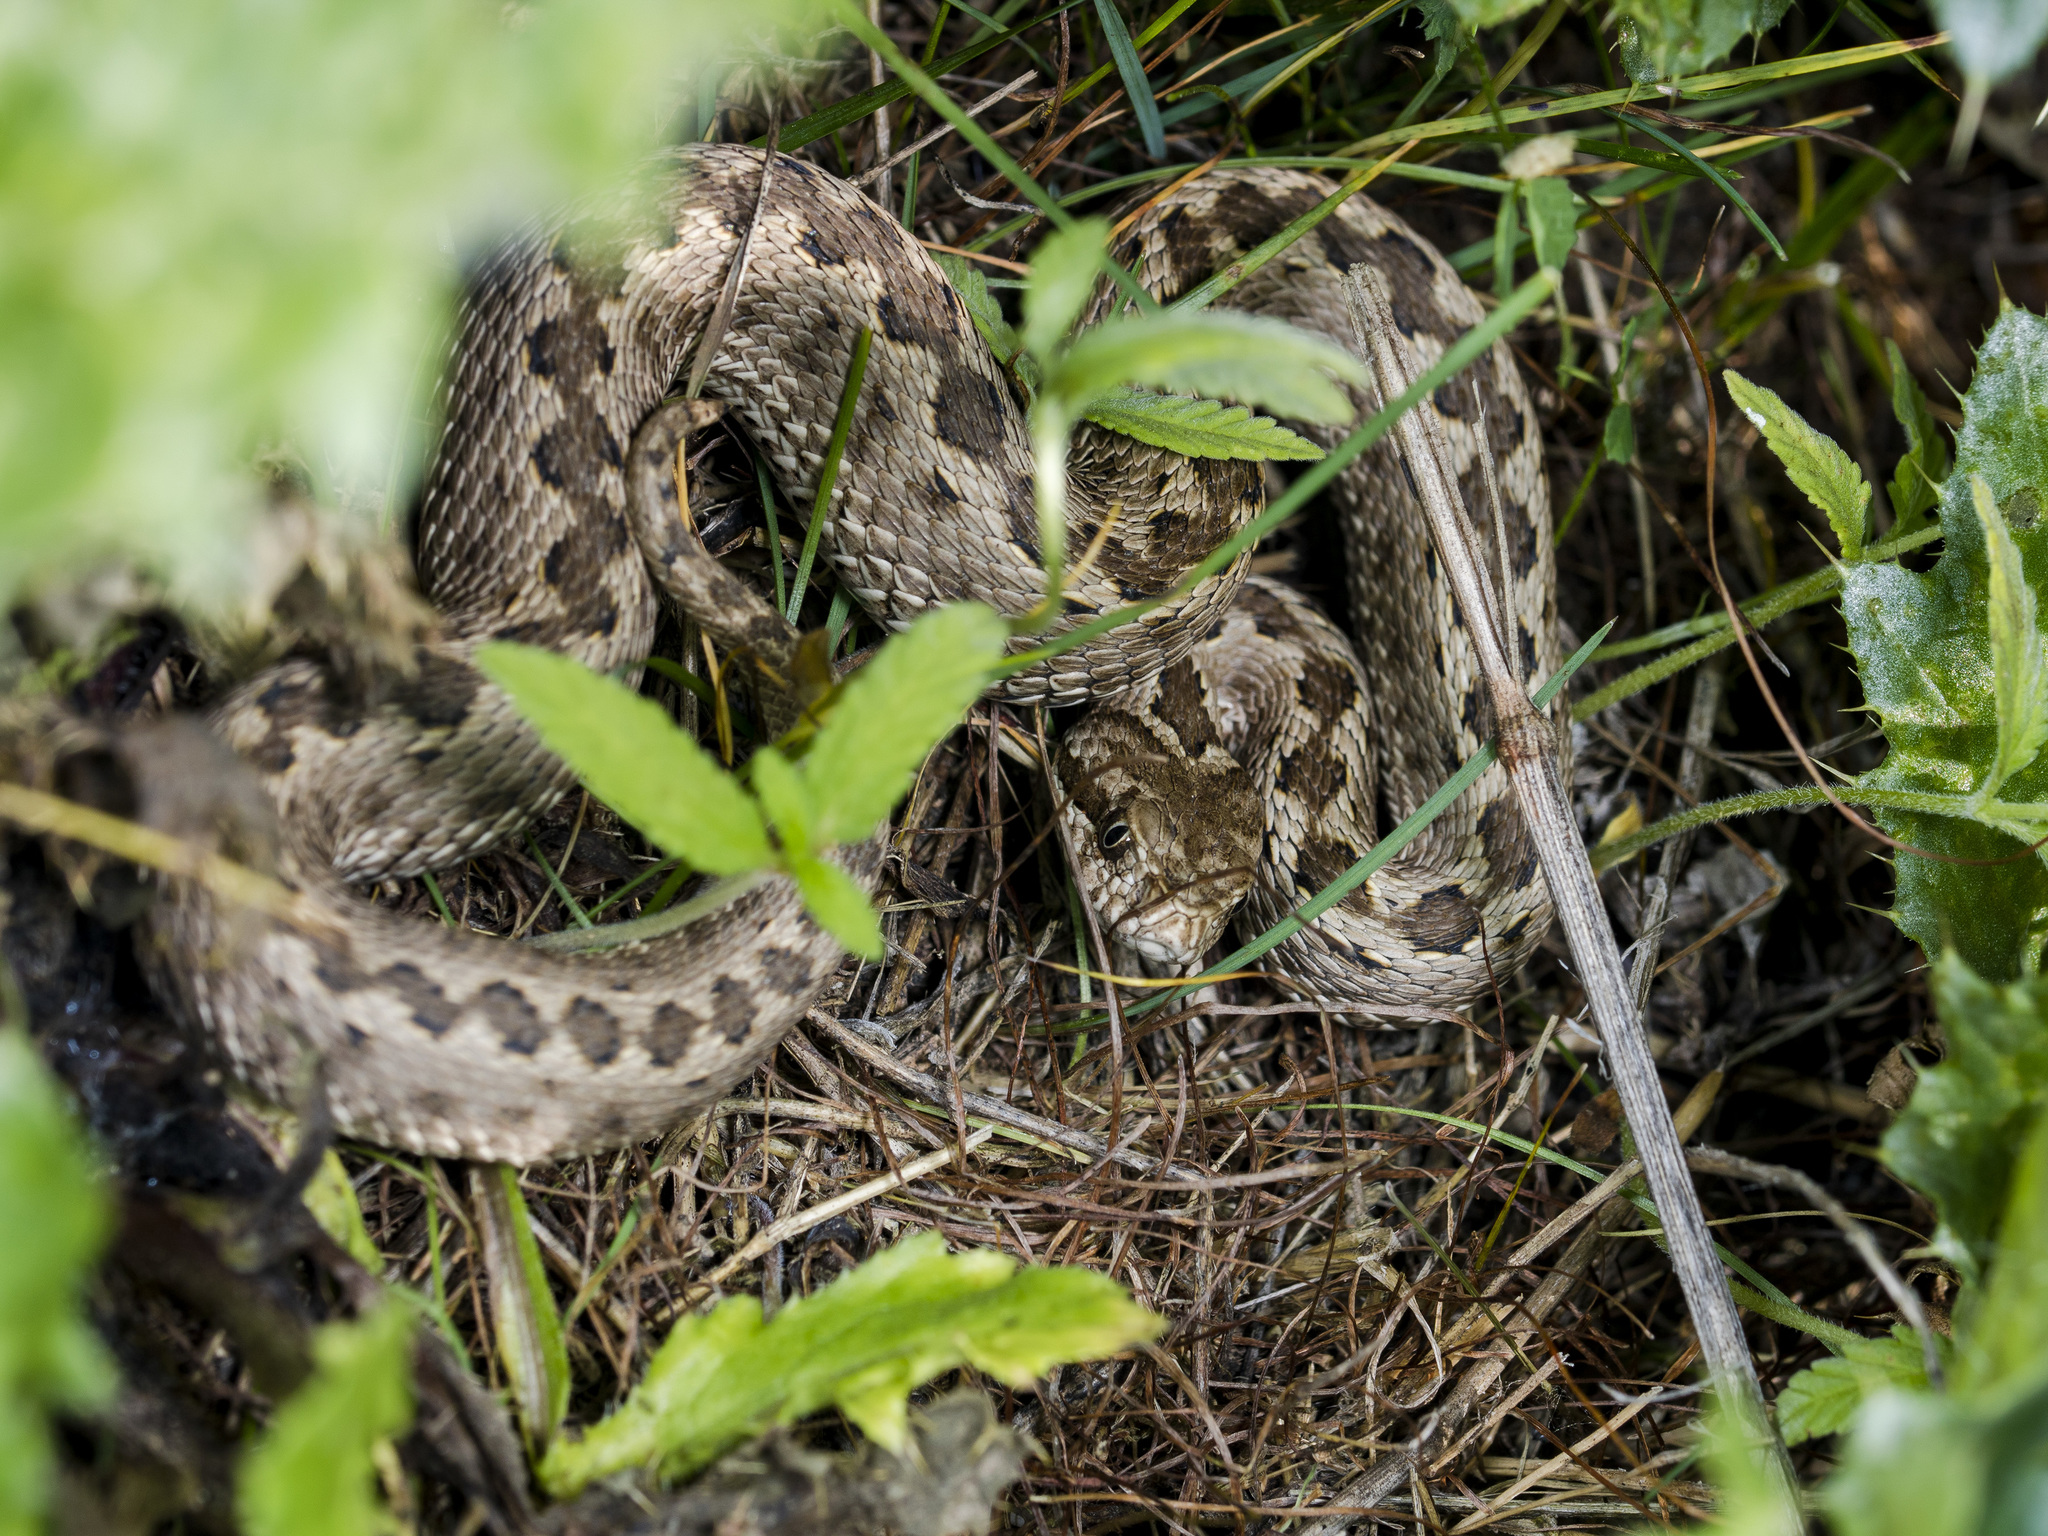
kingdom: Animalia
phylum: Chordata
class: Squamata
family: Viperidae
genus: Vipera
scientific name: Vipera renardi
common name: Eastern steppe viper
